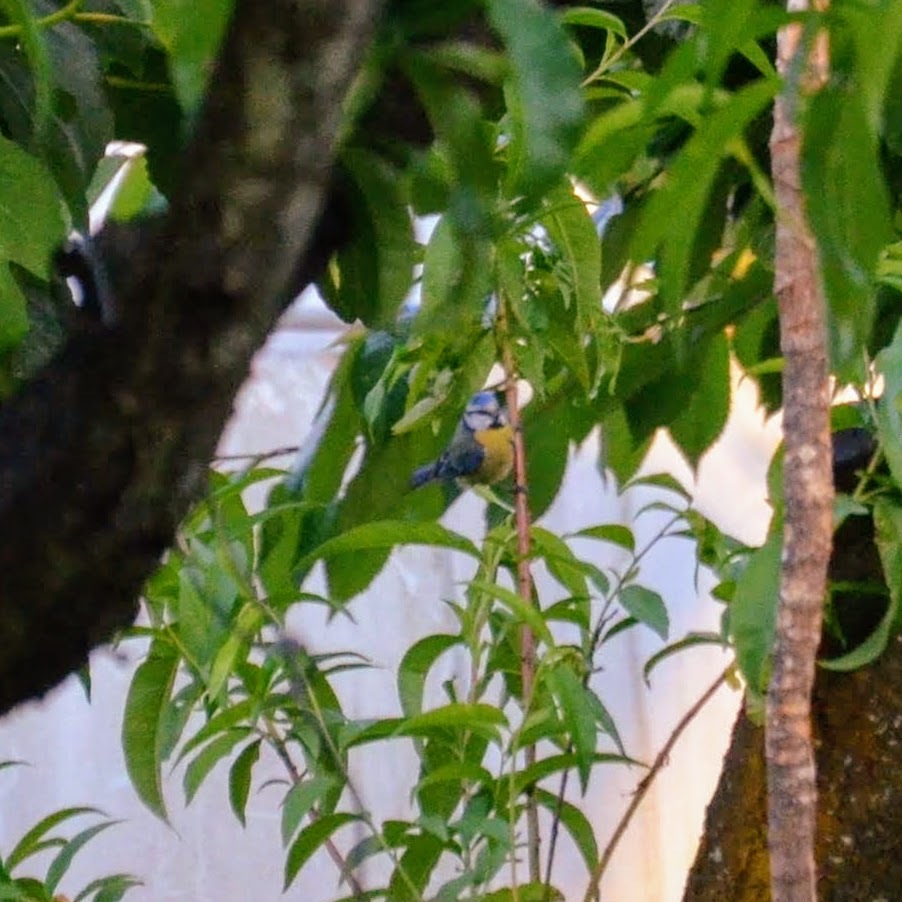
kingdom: Animalia
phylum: Chordata
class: Aves
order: Passeriformes
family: Paridae
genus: Cyanistes
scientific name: Cyanistes caeruleus
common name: Eurasian blue tit
